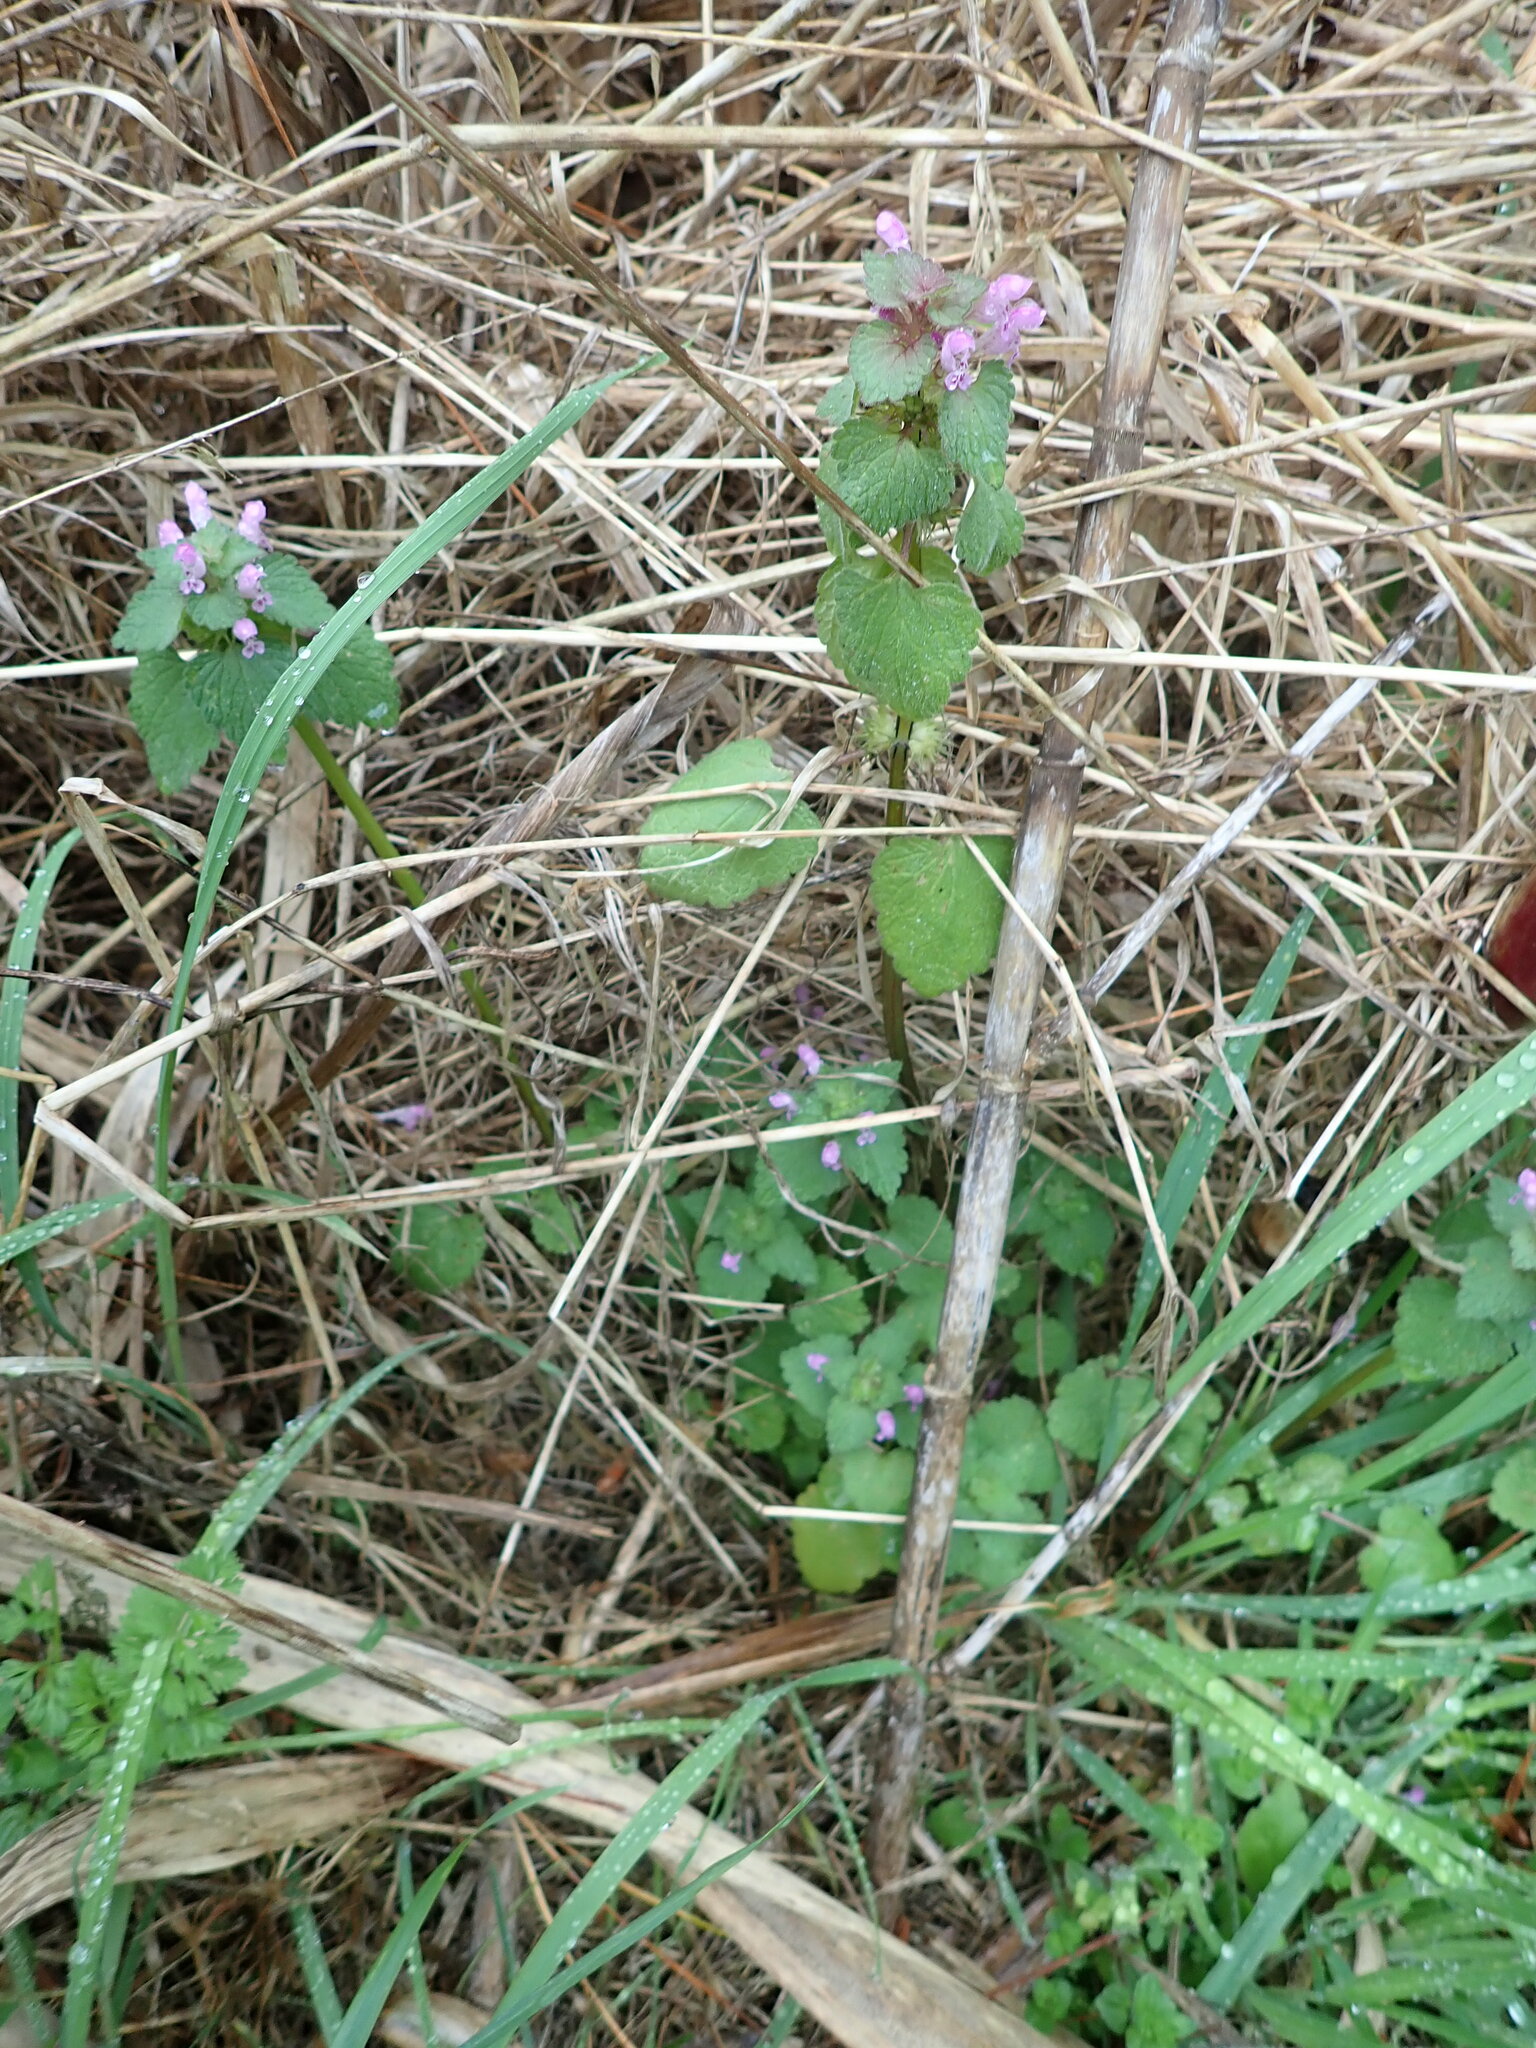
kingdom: Plantae
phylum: Tracheophyta
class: Magnoliopsida
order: Lamiales
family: Lamiaceae
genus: Lamium
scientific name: Lamium purpureum
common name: Red dead-nettle
